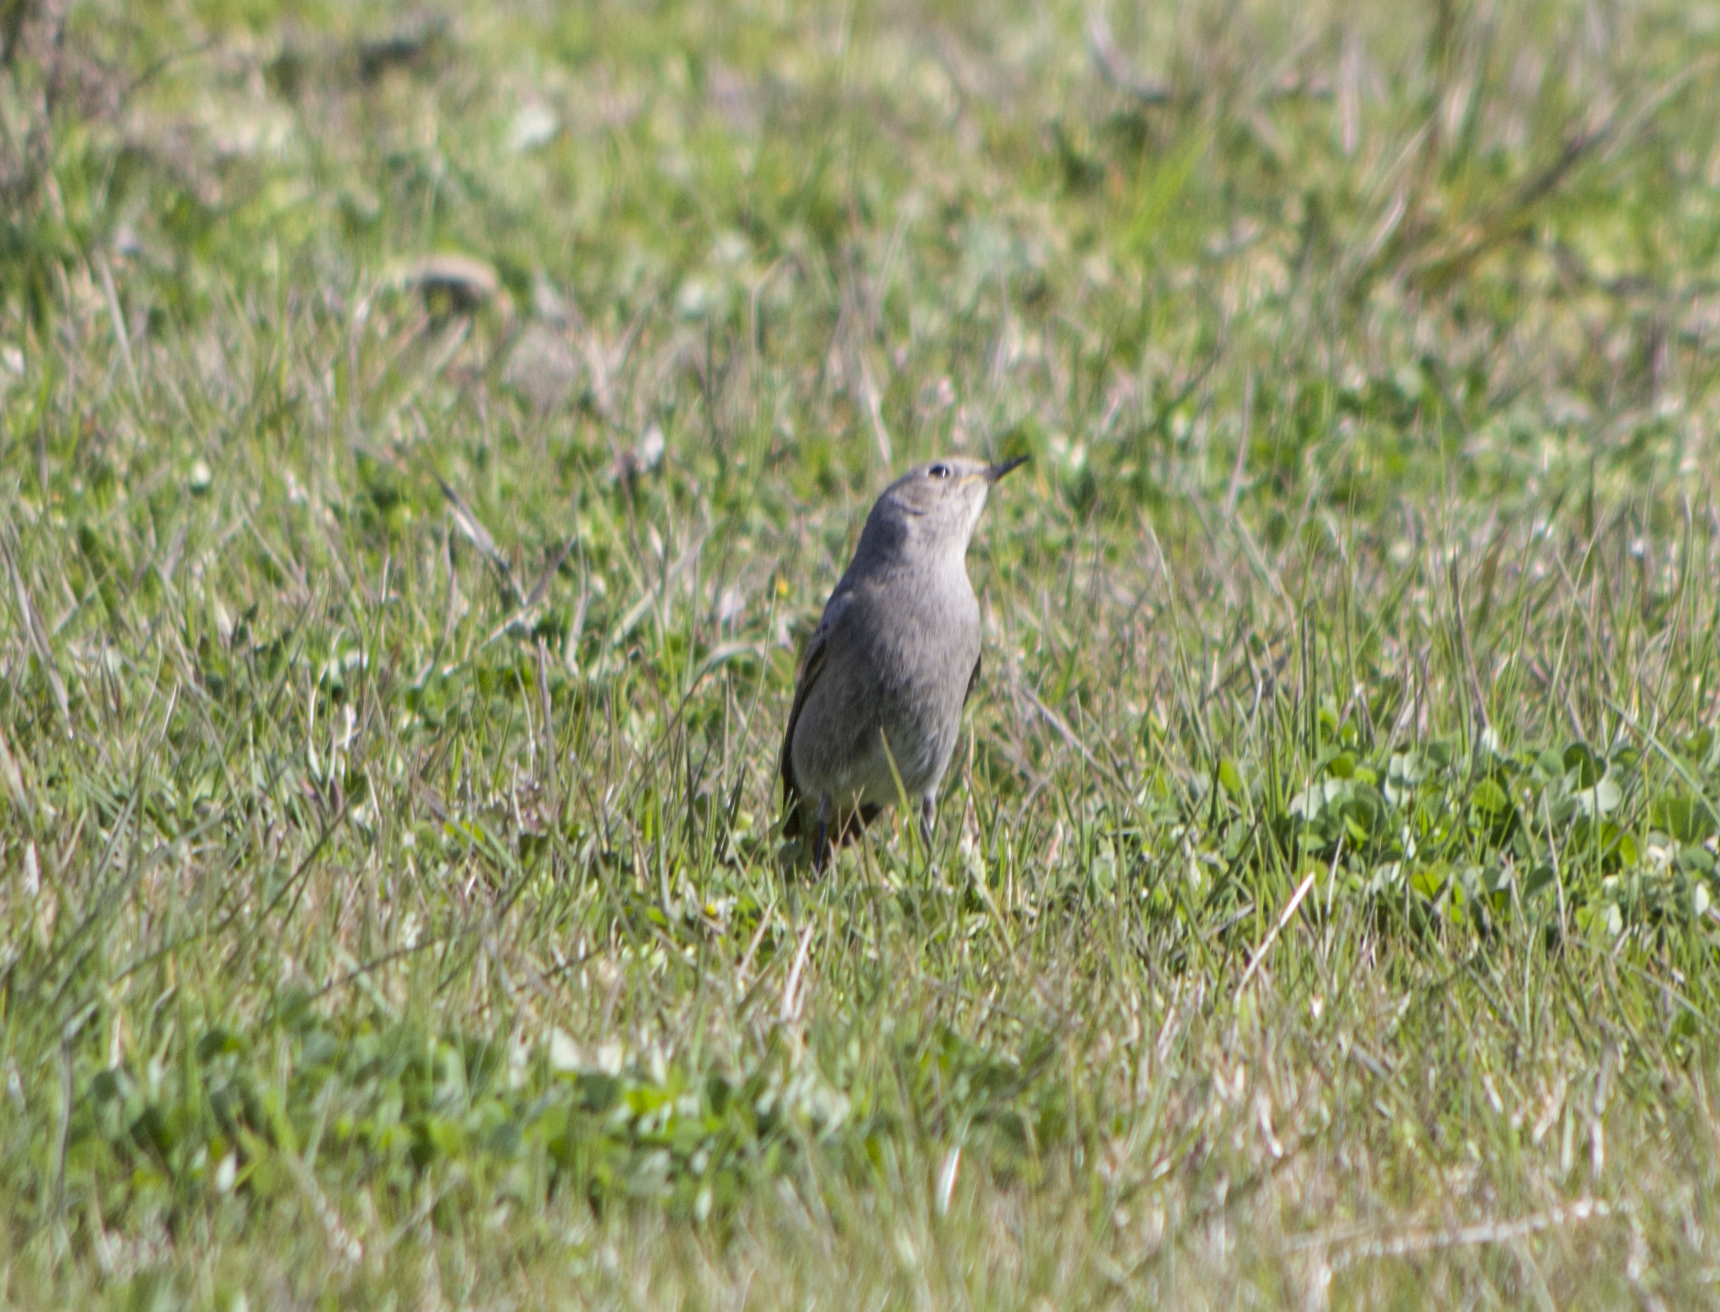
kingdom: Animalia
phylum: Chordata
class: Aves
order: Passeriformes
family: Muscicapidae
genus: Phoenicurus
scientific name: Phoenicurus ochruros
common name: Black redstart
